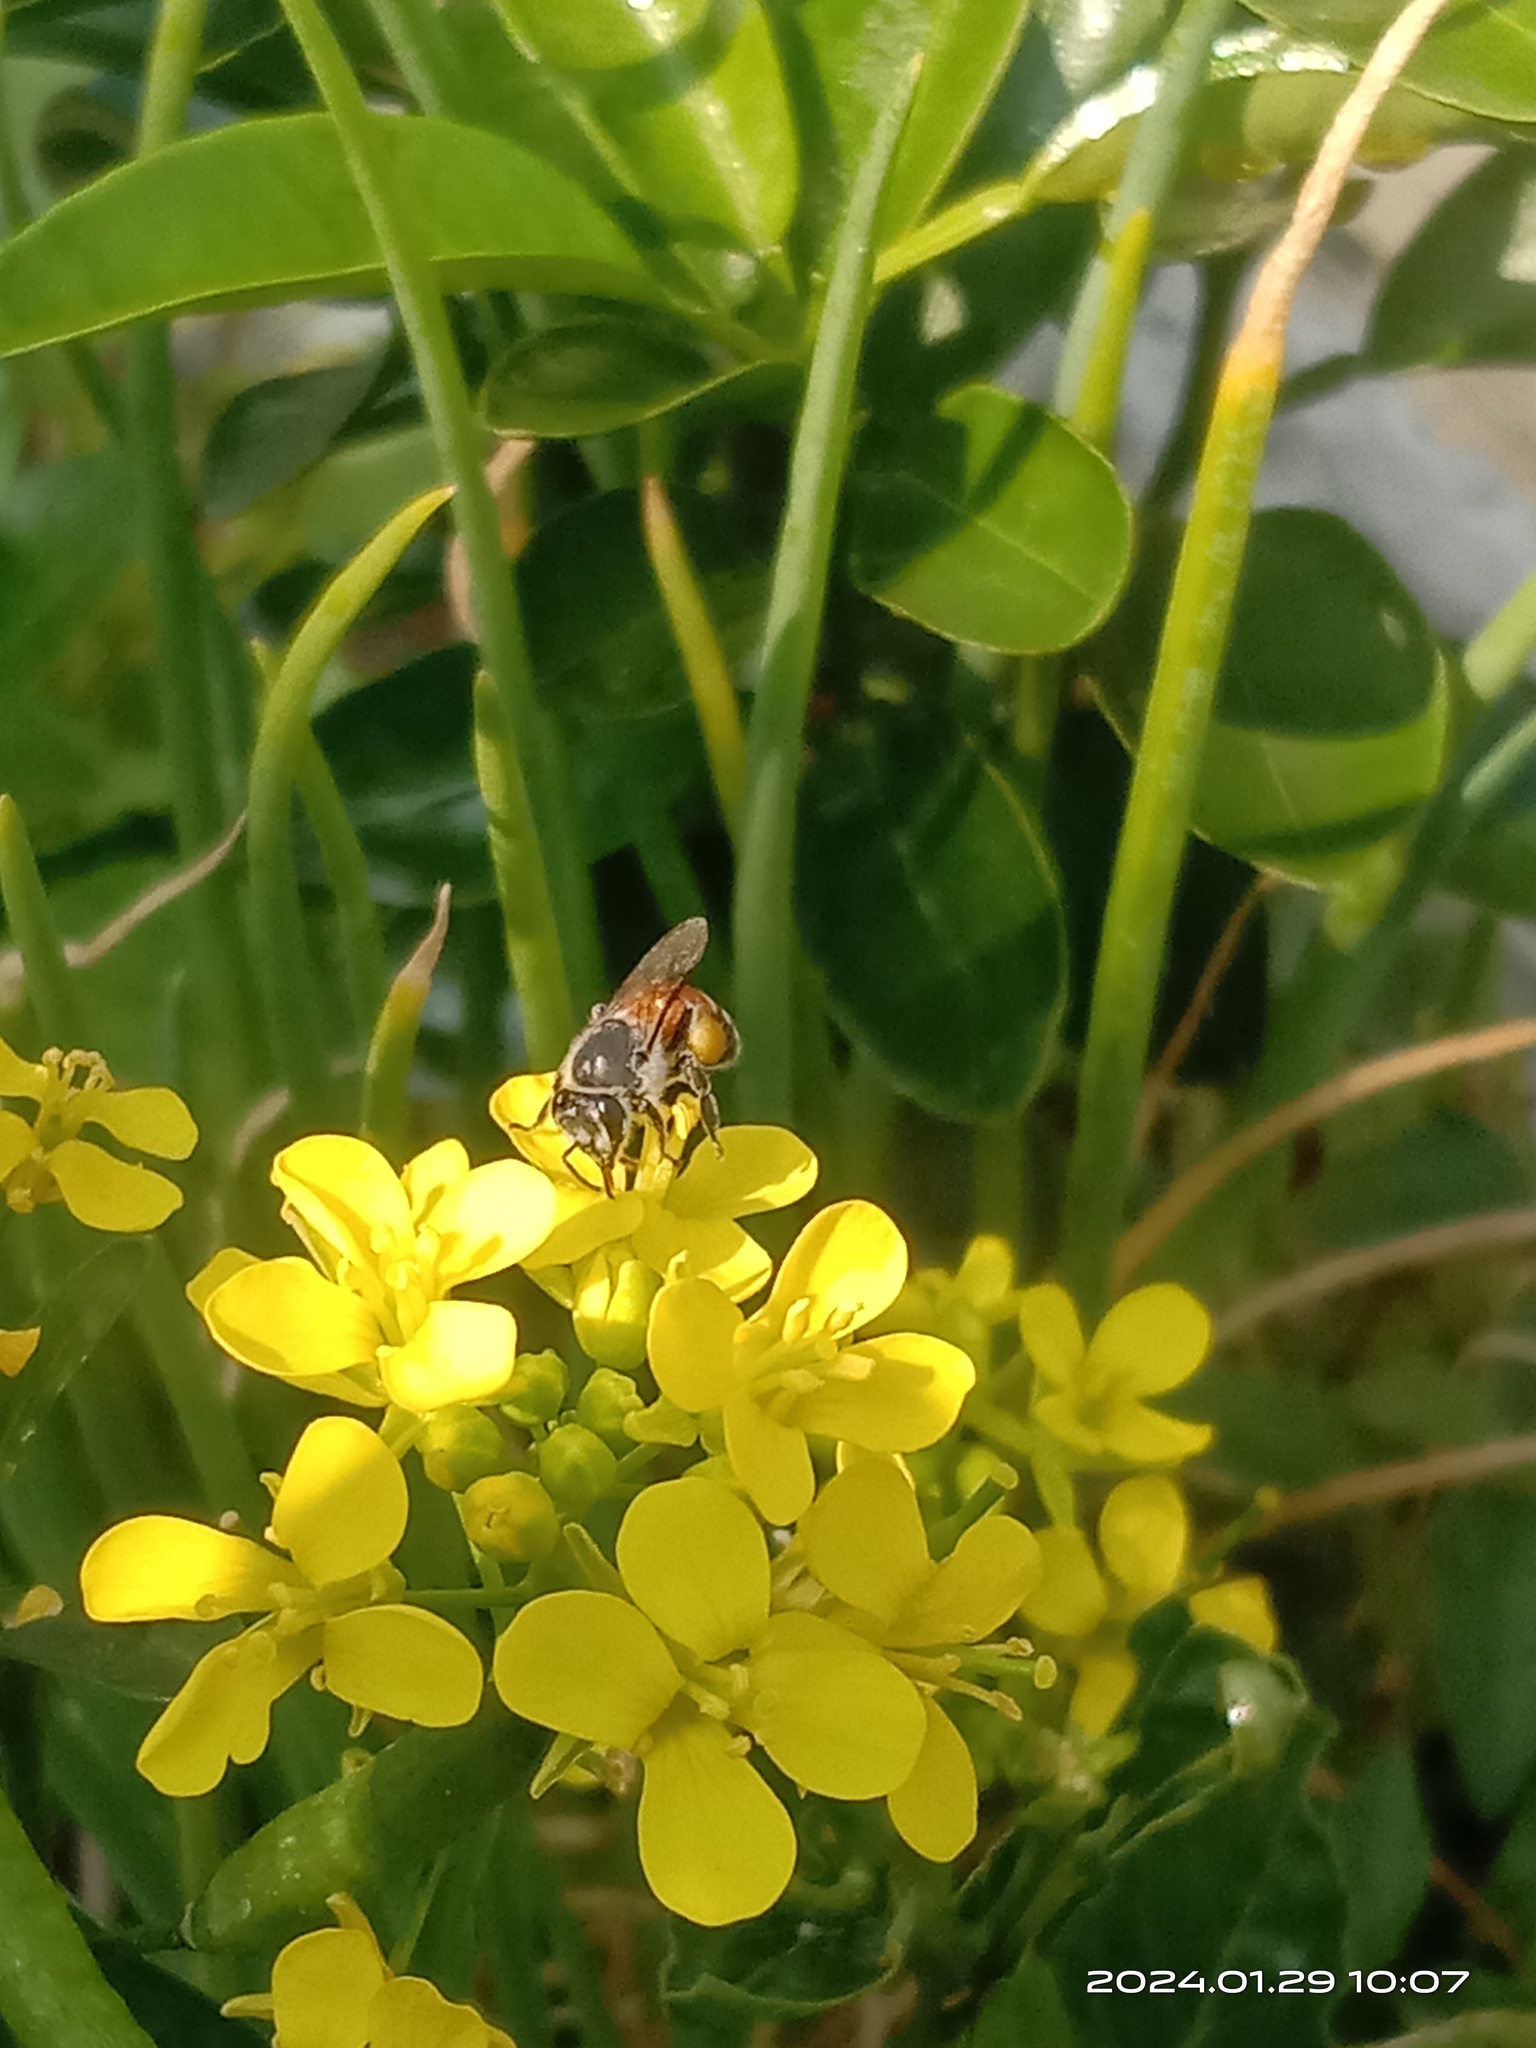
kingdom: Animalia
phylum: Arthropoda
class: Insecta
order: Hymenoptera
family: Apidae
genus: Apis
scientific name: Apis florea
